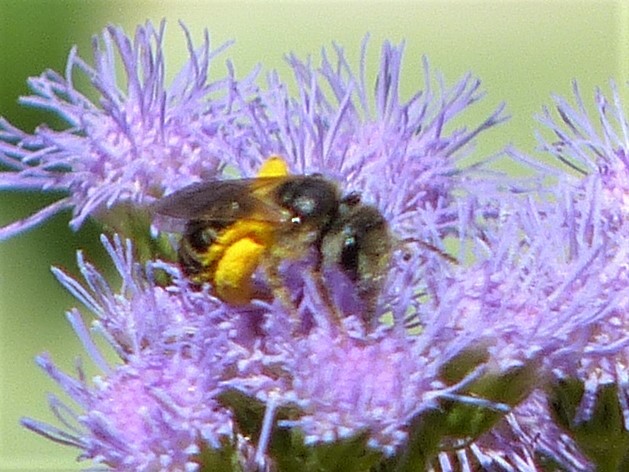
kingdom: Animalia
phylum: Arthropoda
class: Insecta
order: Hymenoptera
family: Halictidae
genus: Halictus
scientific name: Halictus ligatus
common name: Ligated furrow bee
